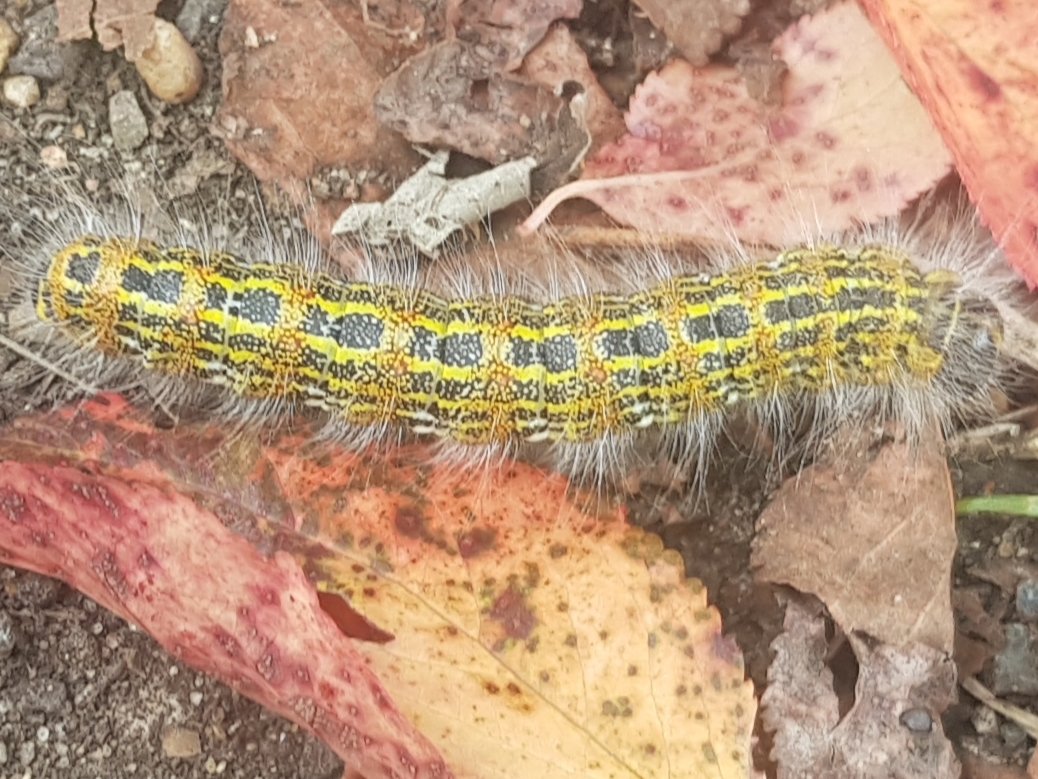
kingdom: Animalia
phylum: Arthropoda
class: Insecta
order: Lepidoptera
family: Notodontidae
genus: Phalera
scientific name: Phalera bucephala
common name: Buff-tip
